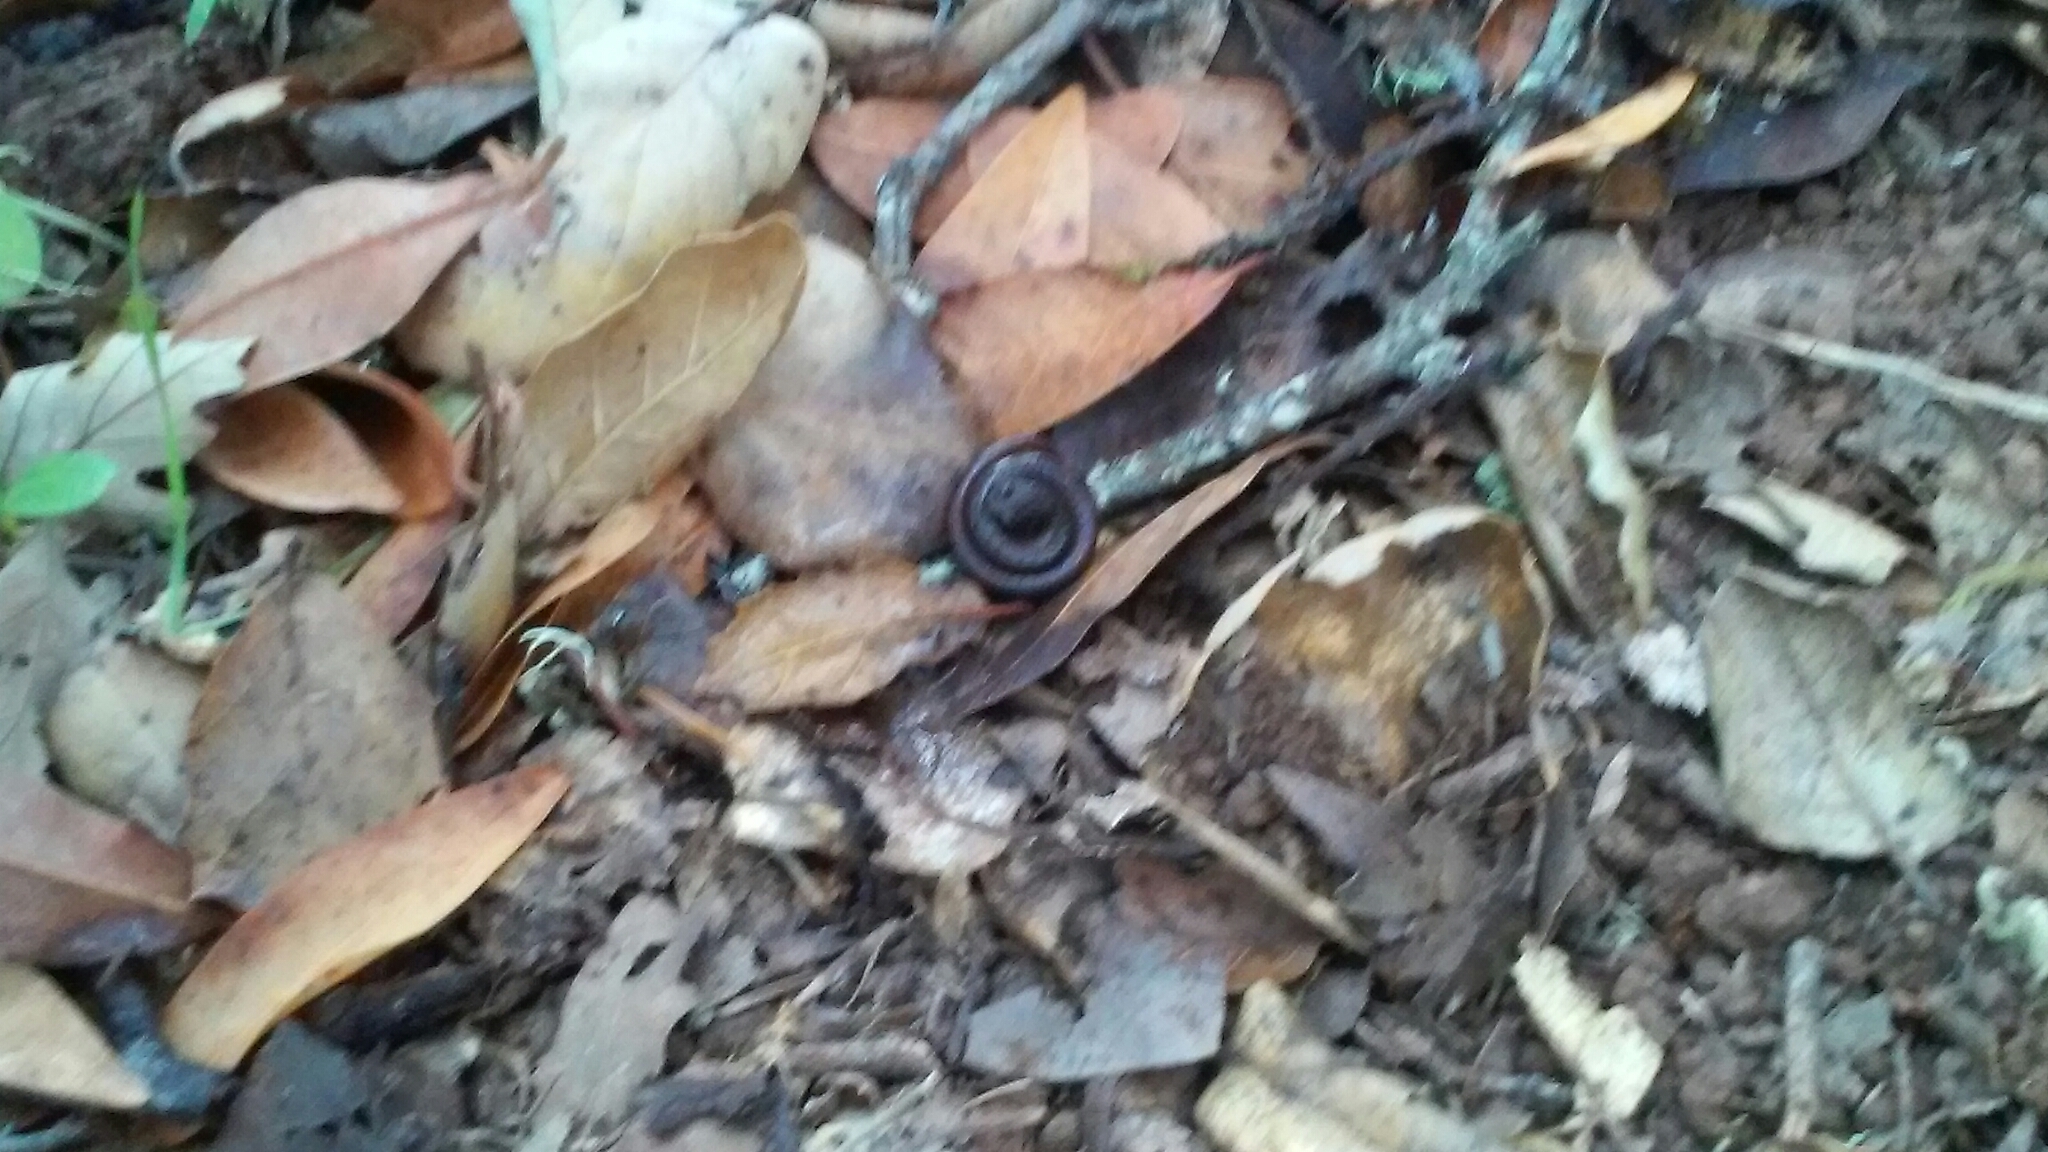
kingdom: Animalia
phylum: Chordata
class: Amphibia
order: Caudata
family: Plethodontidae
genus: Batrachoseps
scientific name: Batrachoseps attenuatus
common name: California slender salamander
